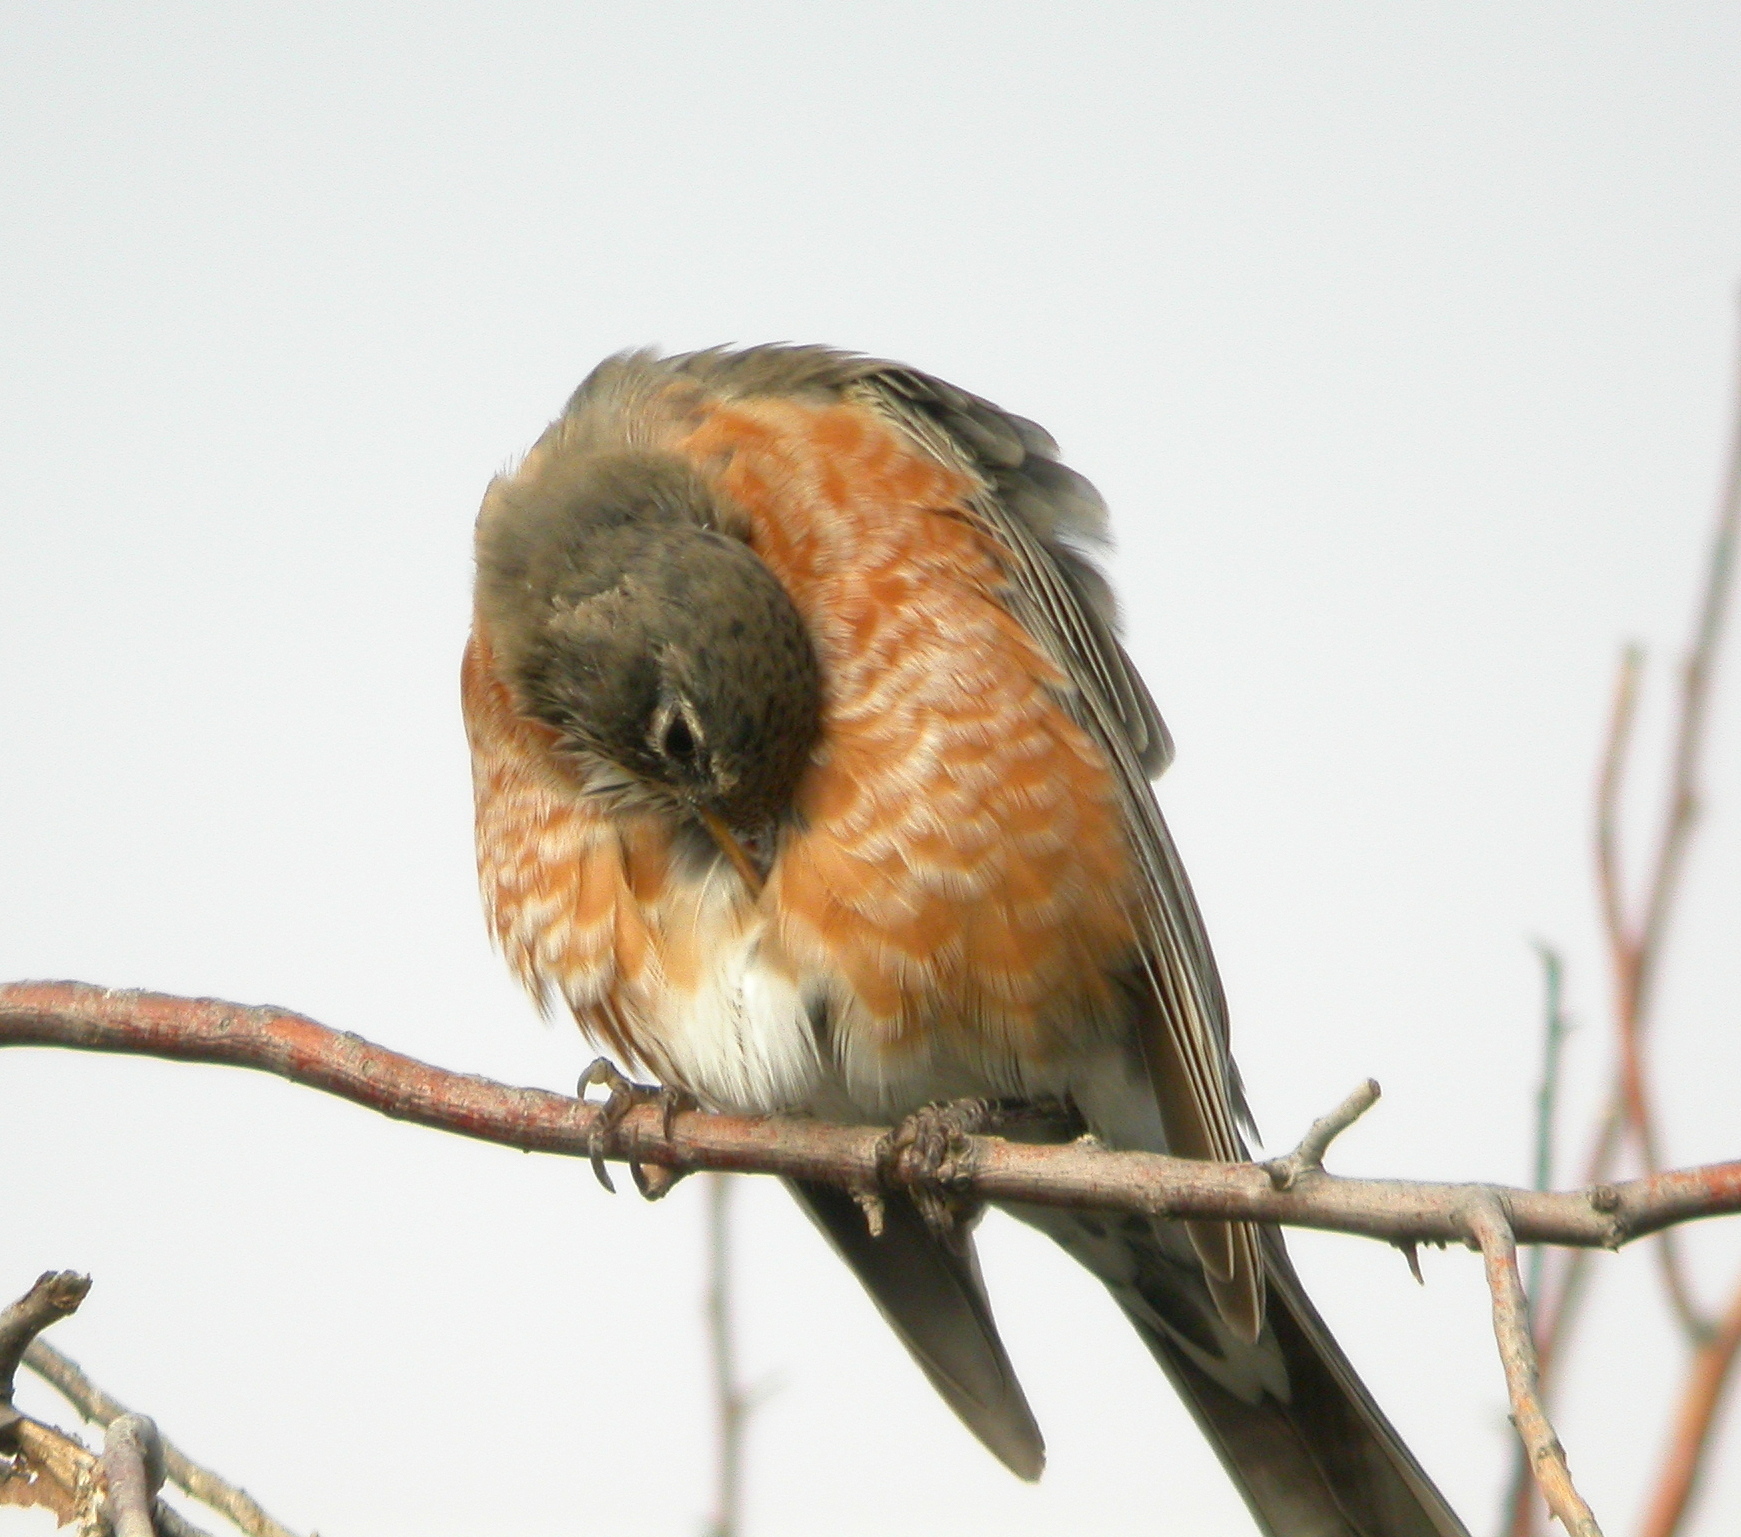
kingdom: Animalia
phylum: Chordata
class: Aves
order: Passeriformes
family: Turdidae
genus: Turdus
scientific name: Turdus migratorius
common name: American robin
